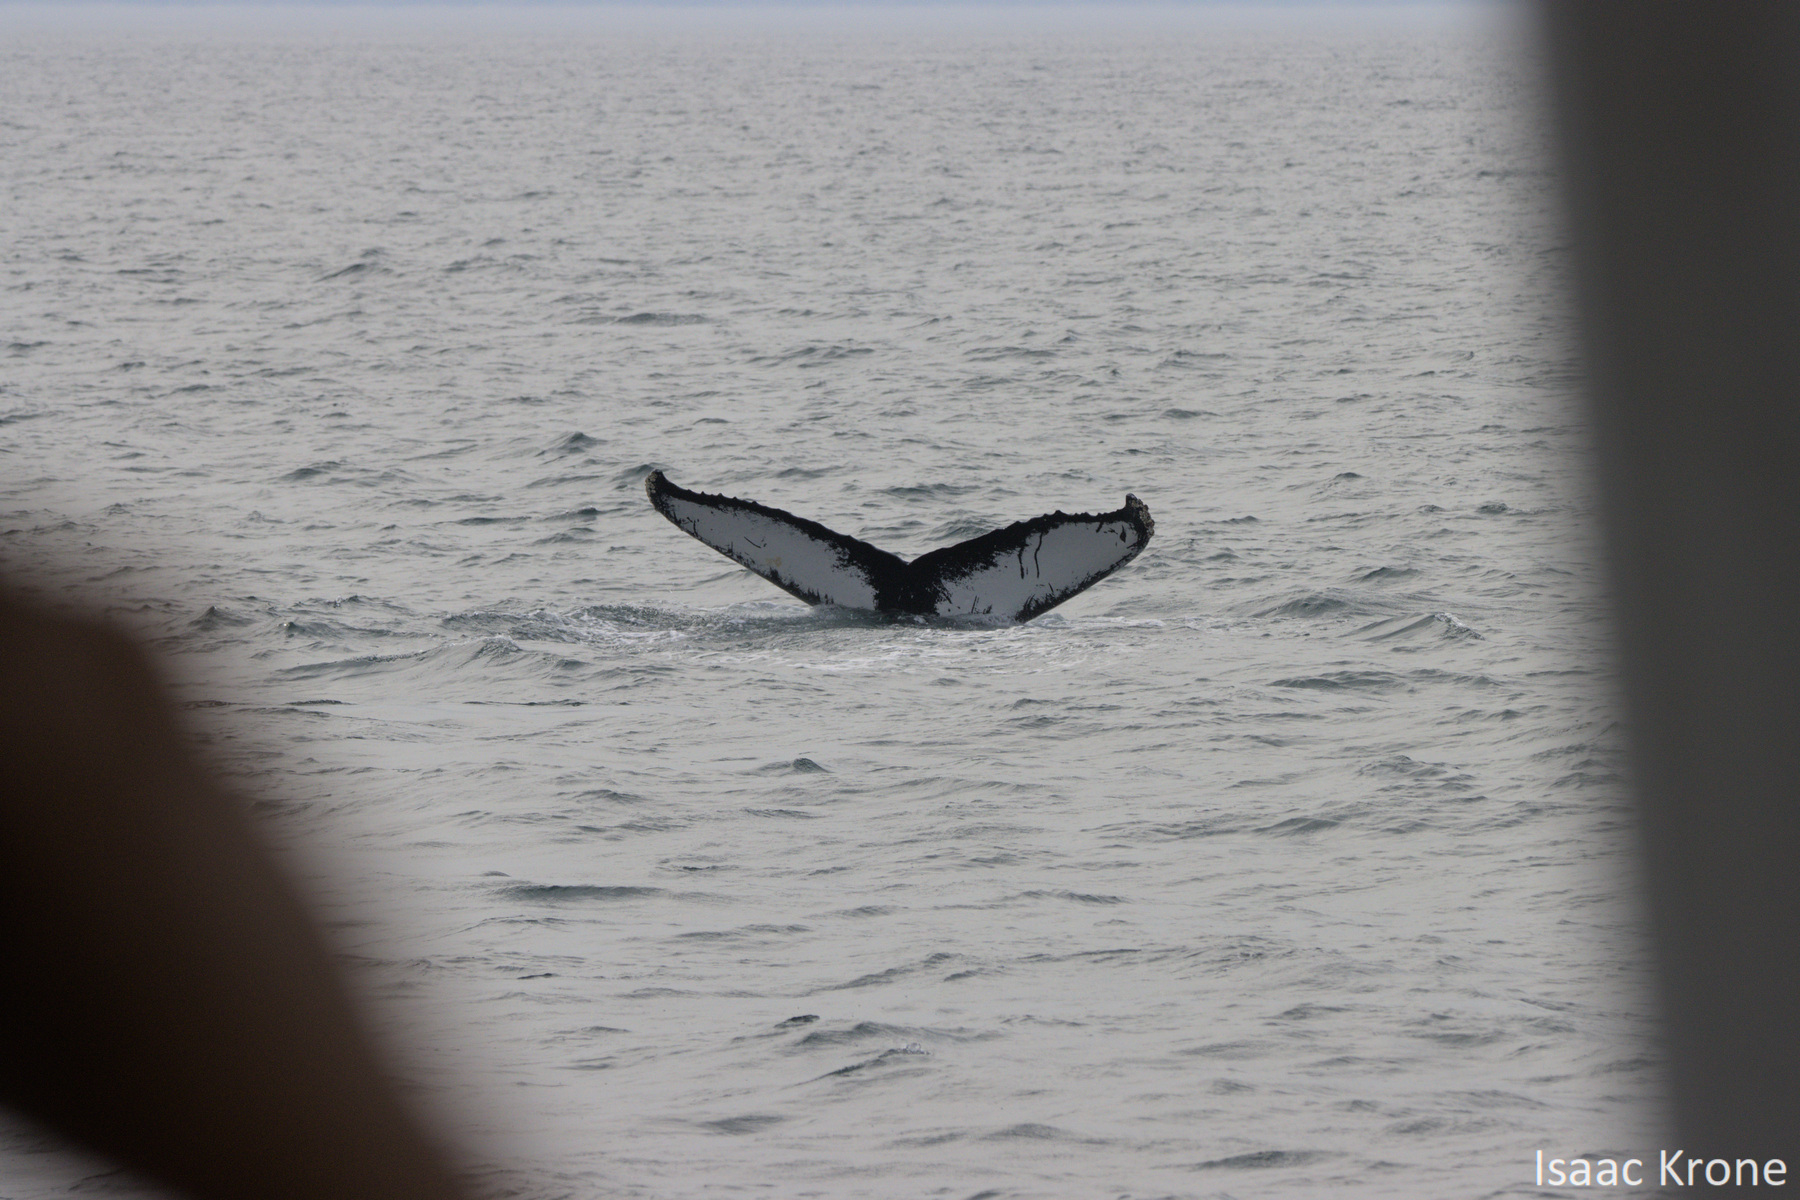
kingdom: Animalia
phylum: Chordata
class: Mammalia
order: Cetacea
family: Balaenopteridae
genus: Megaptera
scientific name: Megaptera novaeangliae
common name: Humpback whale
